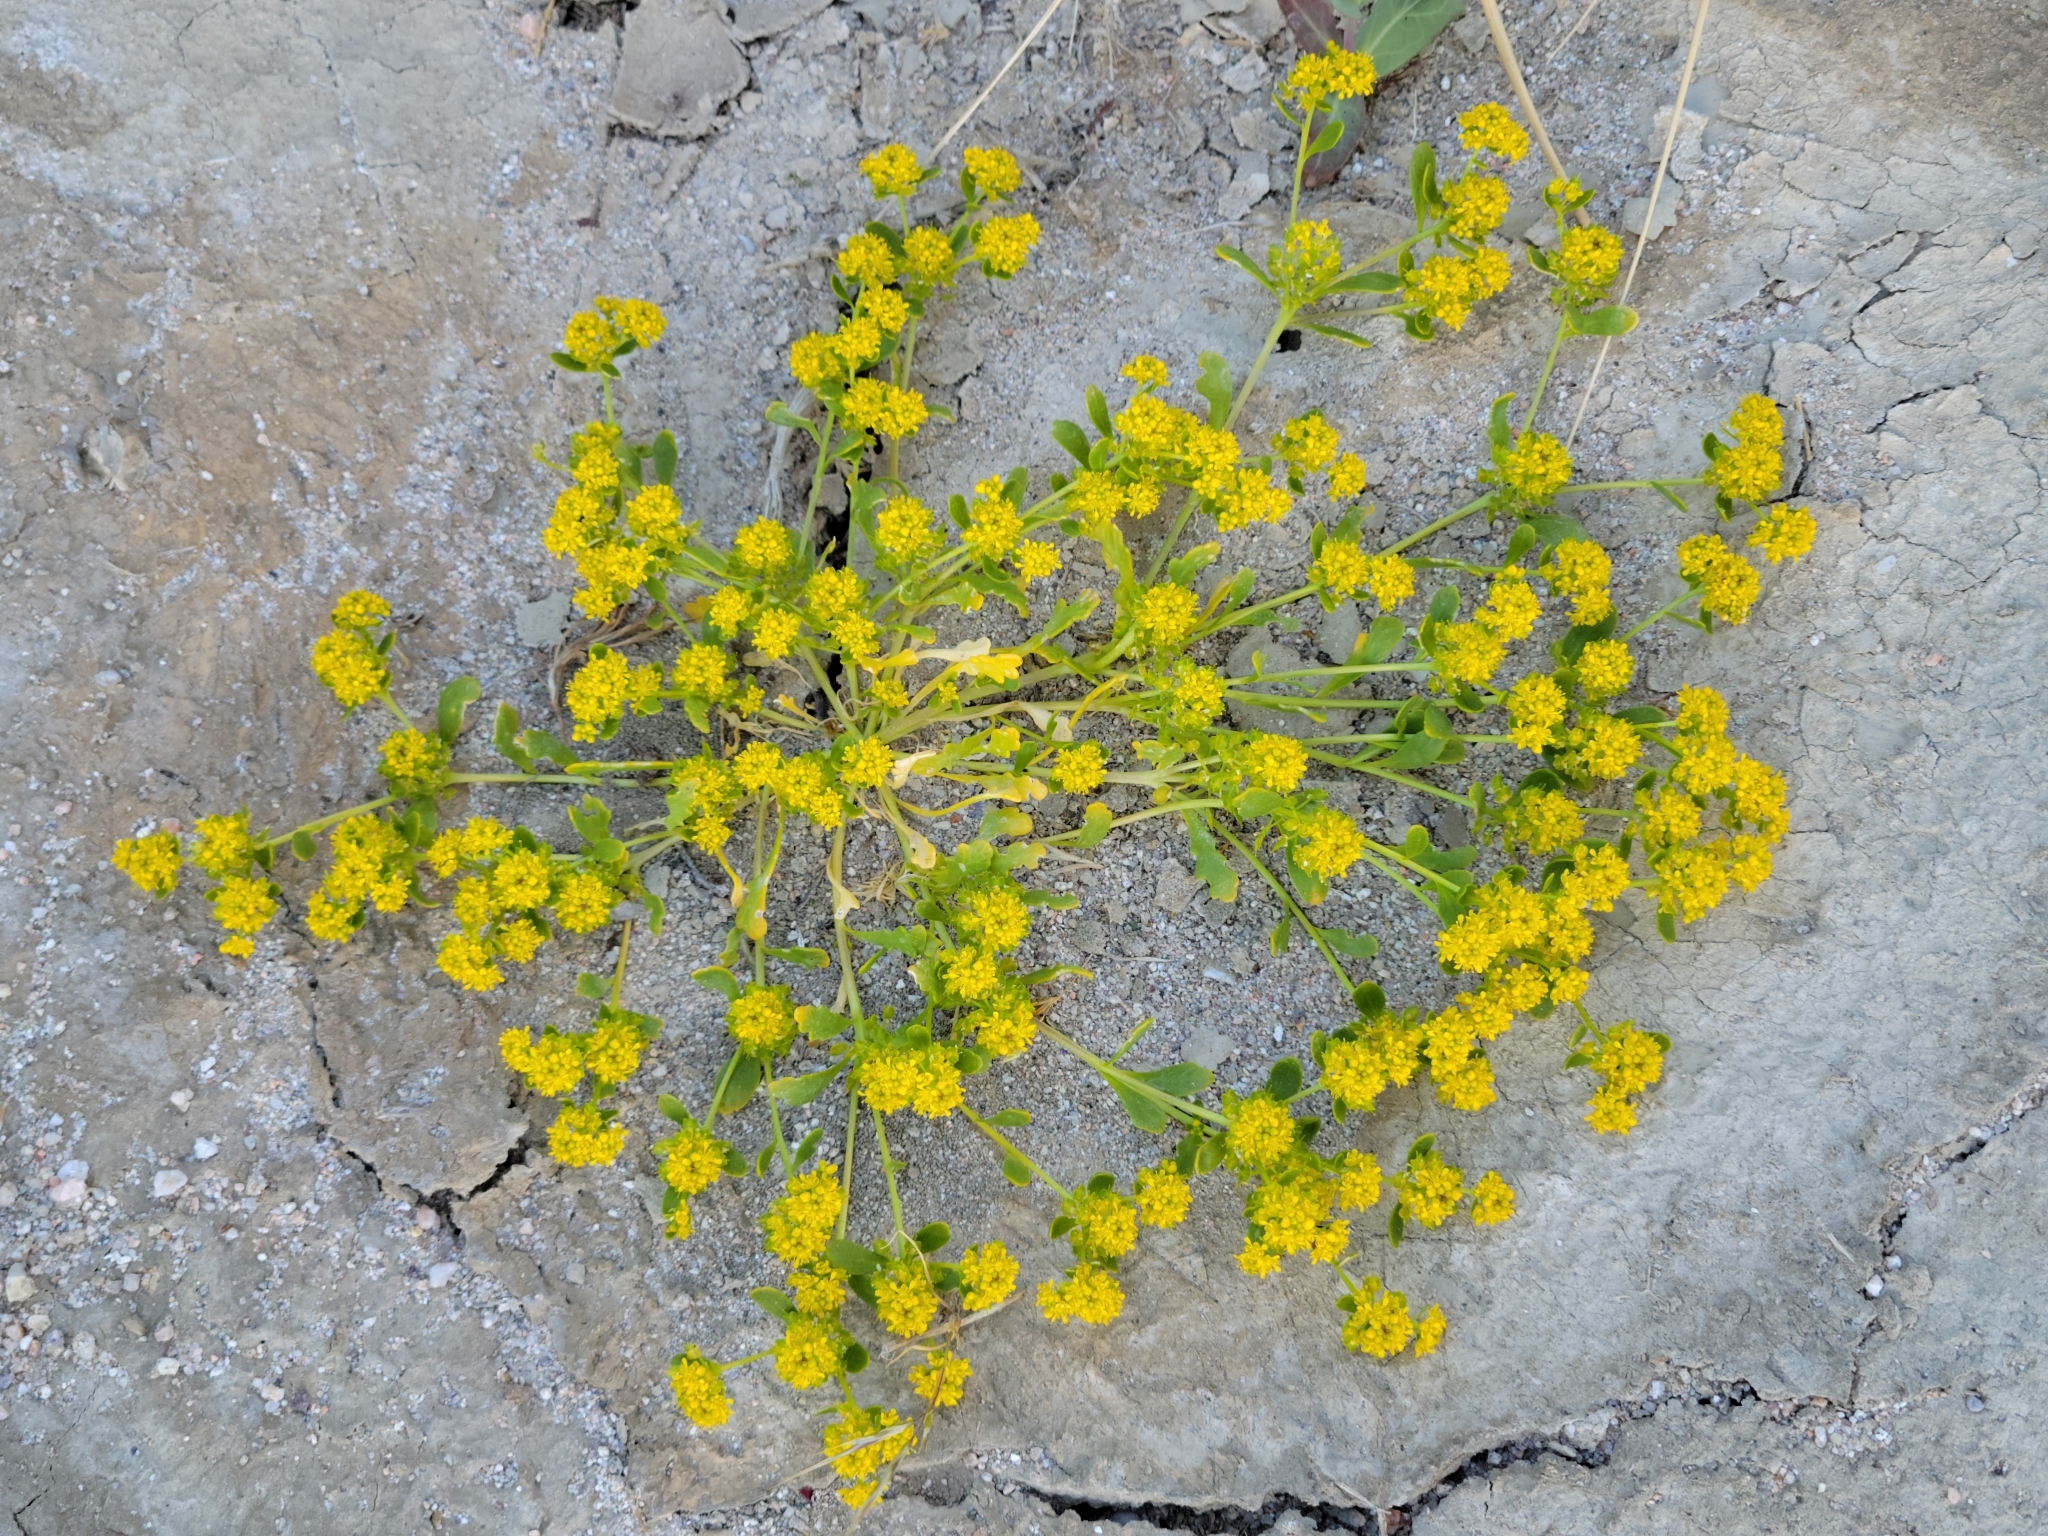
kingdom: Plantae
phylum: Tracheophyta
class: Magnoliopsida
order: Brassicales
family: Brassicaceae
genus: Lepidium
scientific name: Lepidium flavum
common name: Yellow pepperwort
